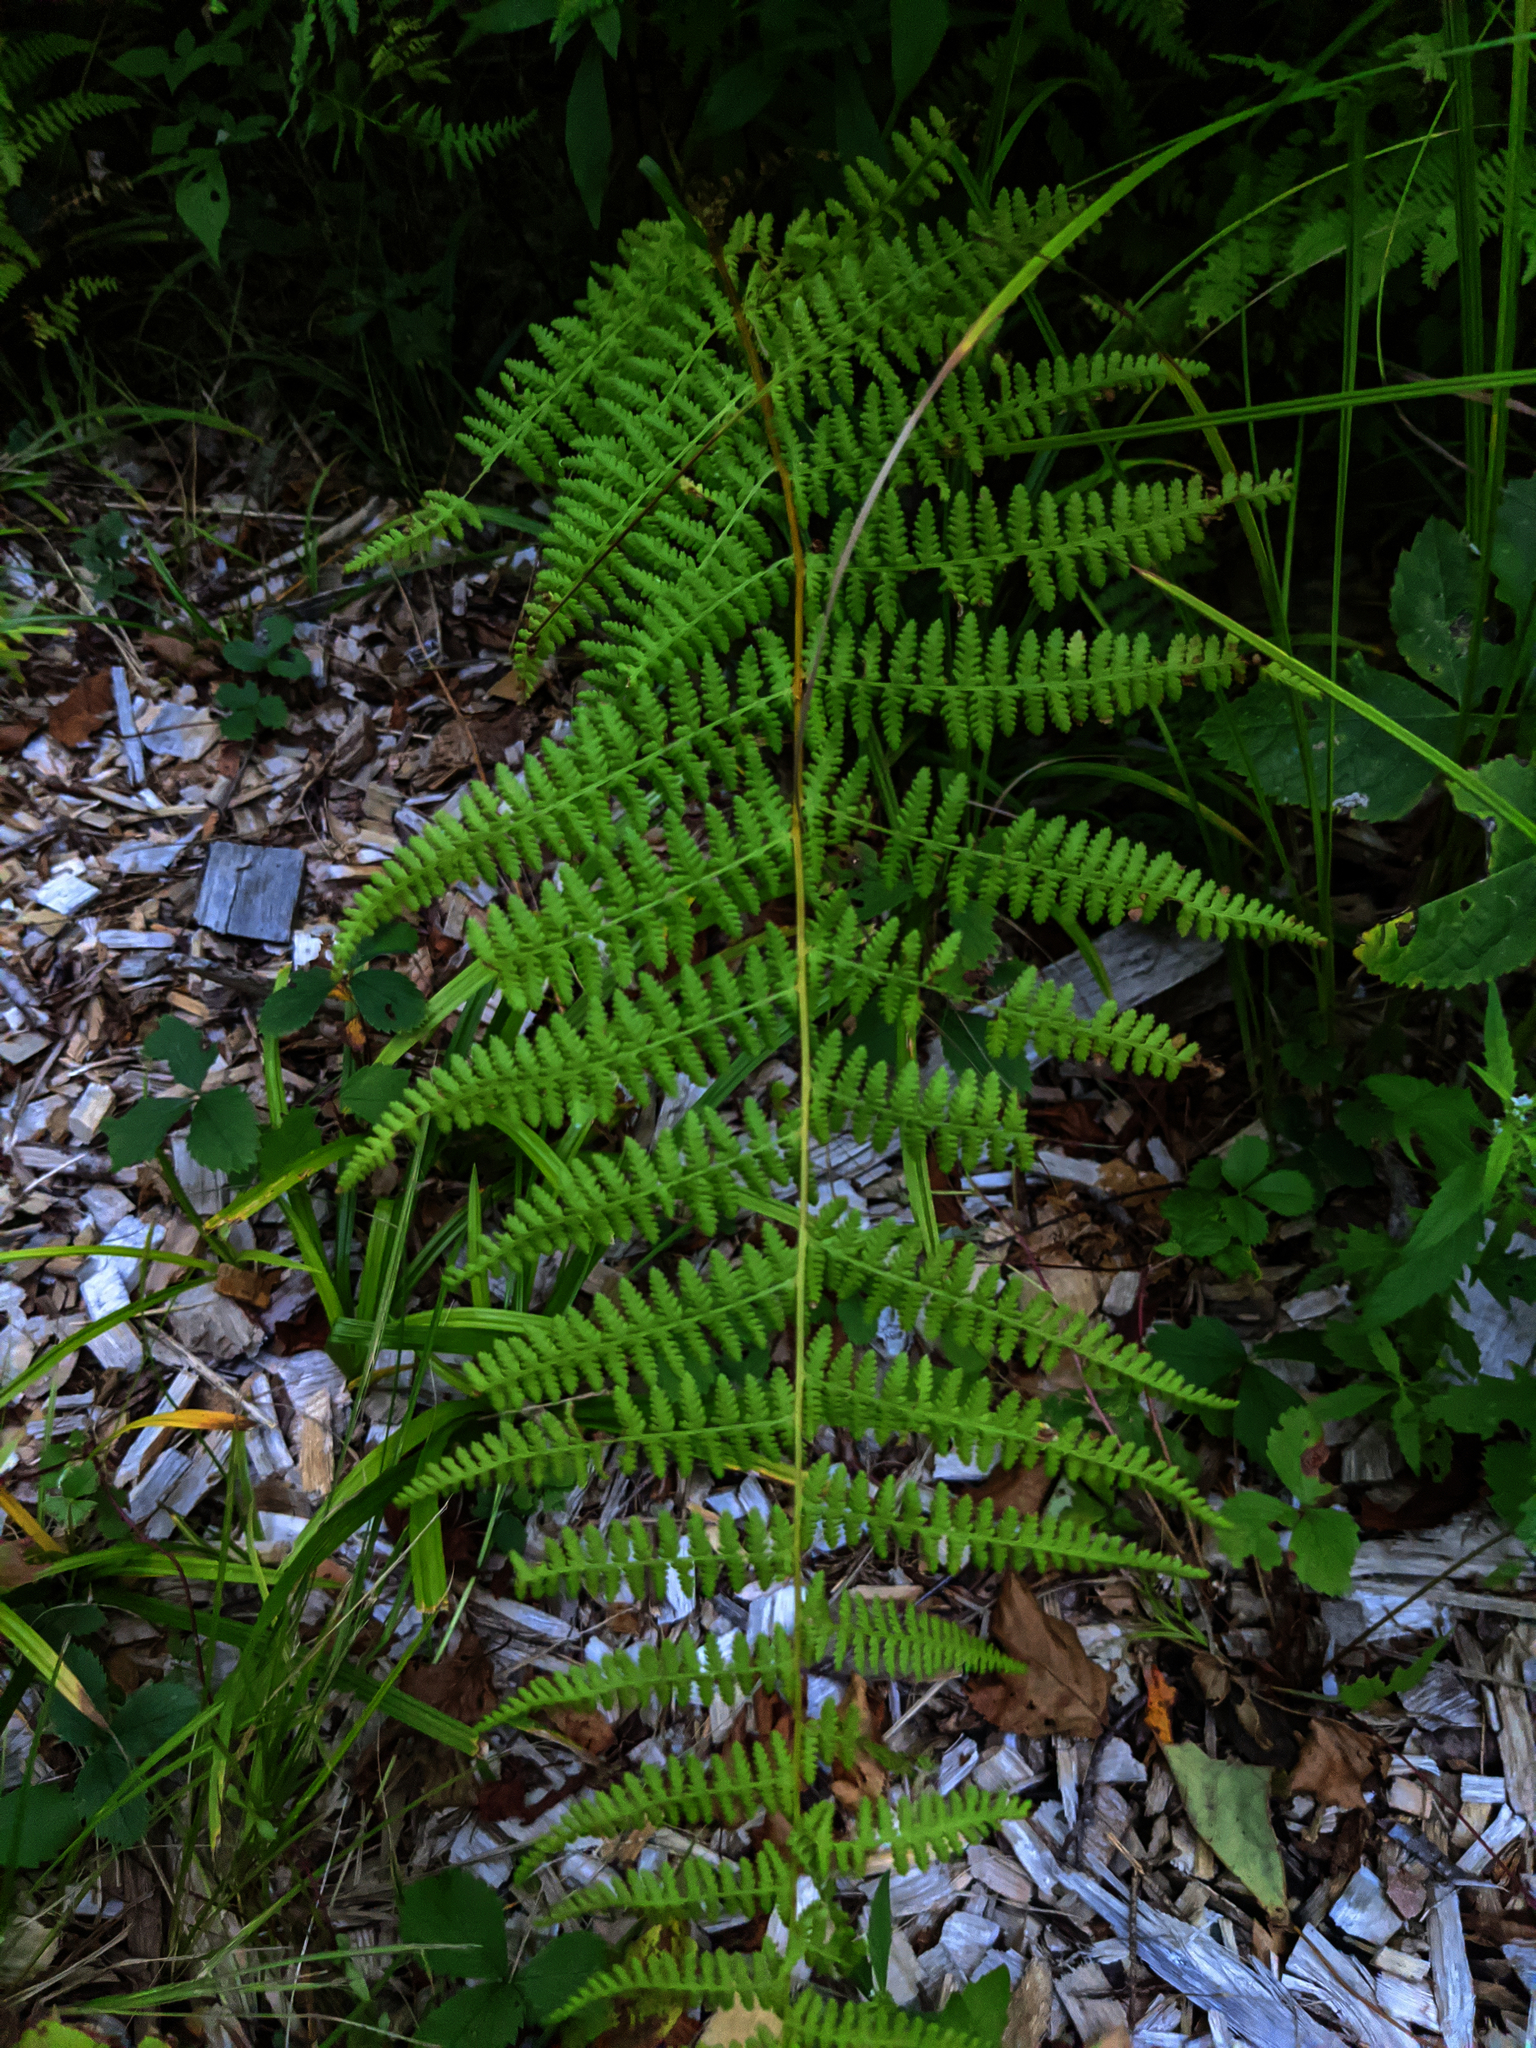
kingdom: Plantae
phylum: Tracheophyta
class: Polypodiopsida
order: Polypodiales
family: Dennstaedtiaceae
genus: Sitobolium
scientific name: Sitobolium punctilobum
